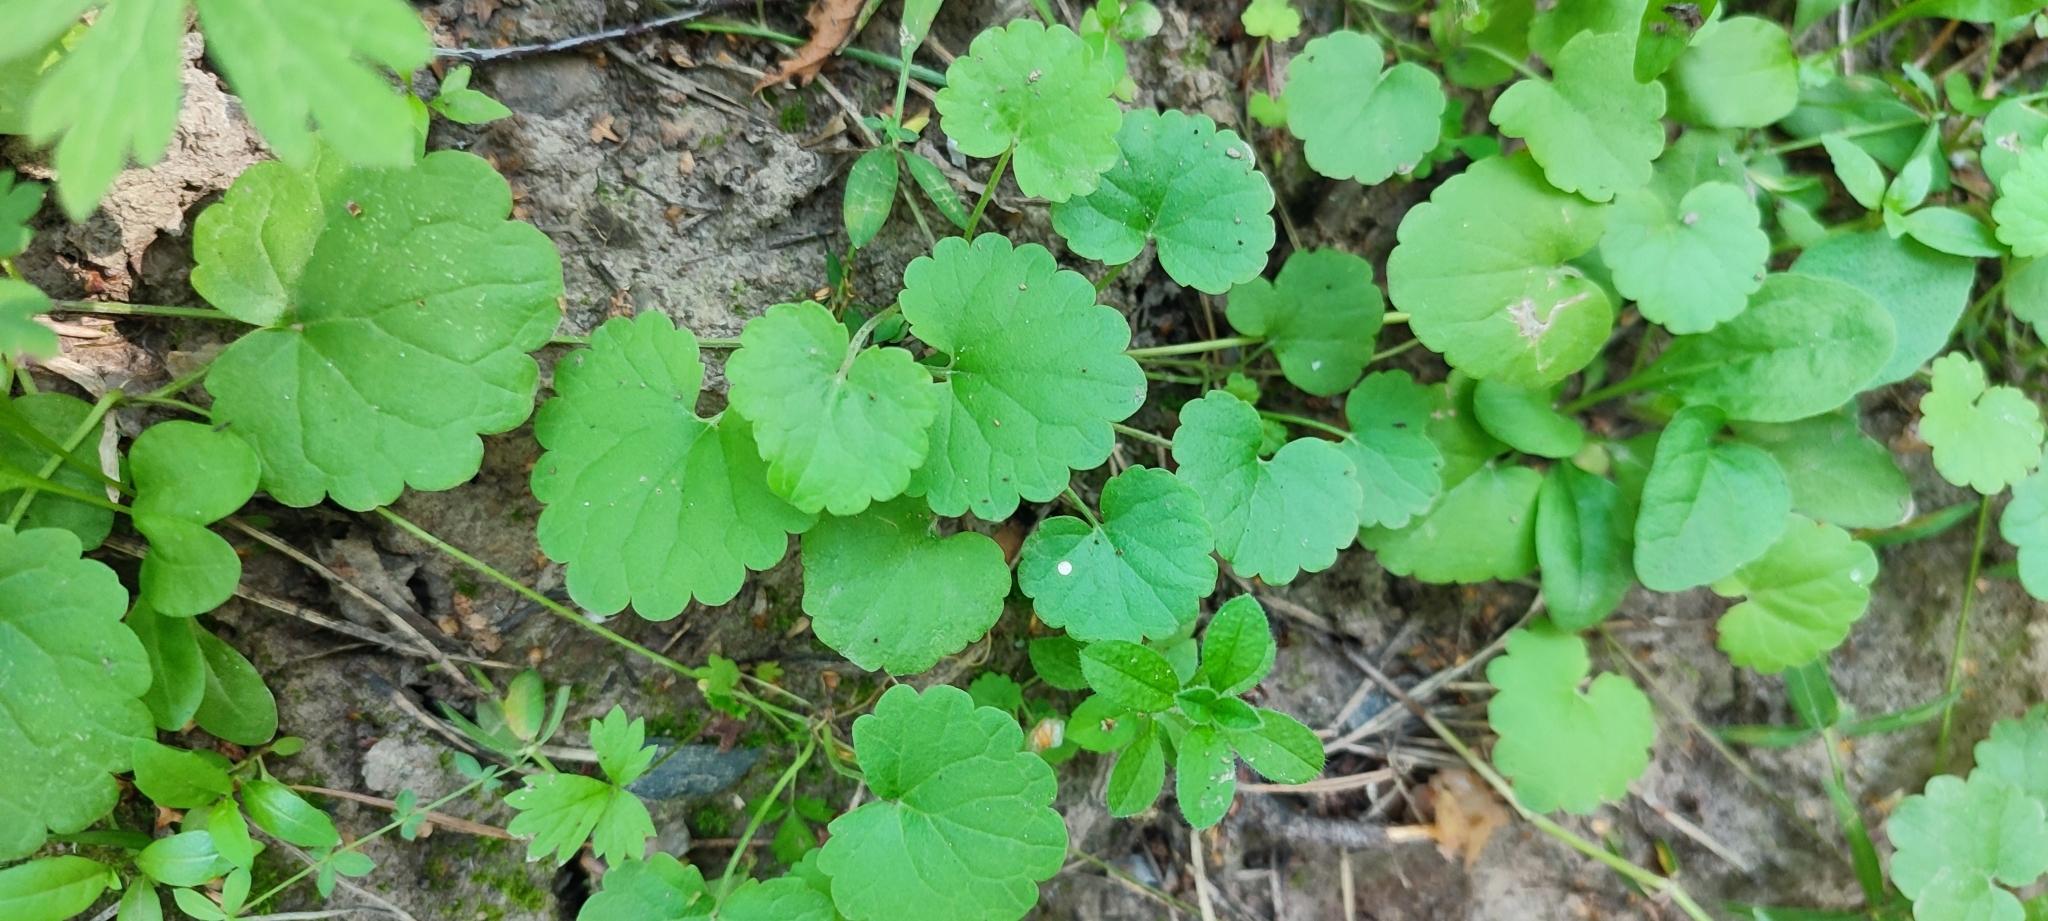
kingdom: Plantae
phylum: Tracheophyta
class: Magnoliopsida
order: Lamiales
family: Lamiaceae
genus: Glechoma
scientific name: Glechoma hederacea
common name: Ground ivy
